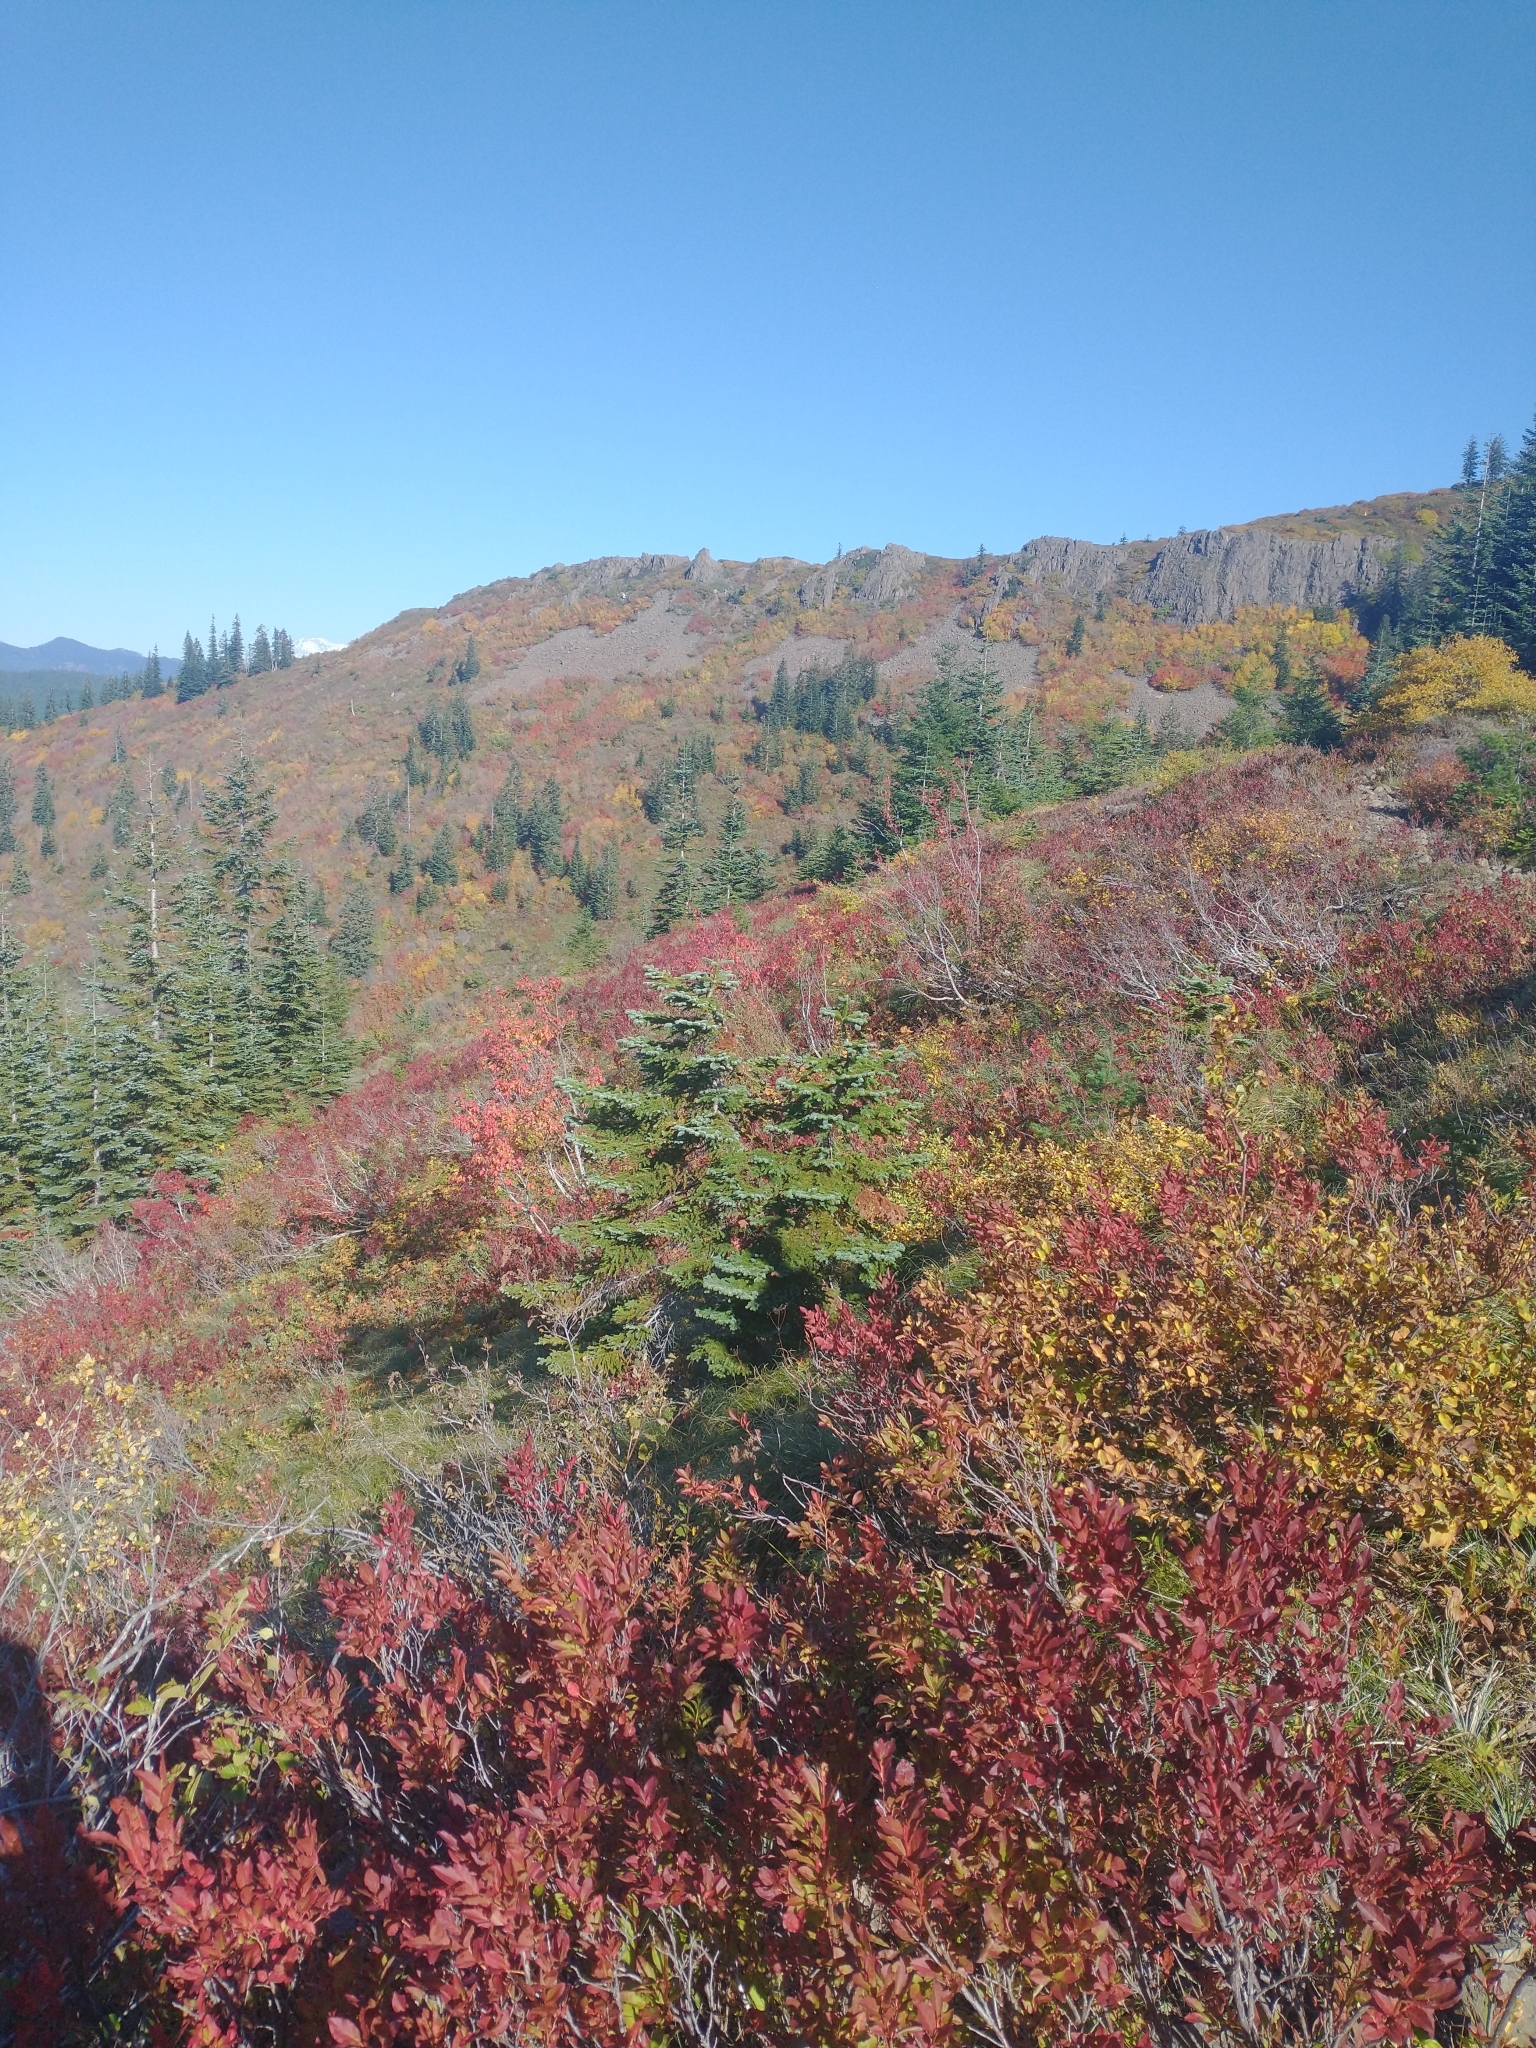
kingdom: Plantae
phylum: Tracheophyta
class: Pinopsida
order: Pinales
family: Pinaceae
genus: Abies
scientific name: Abies procera
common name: Noble fir
